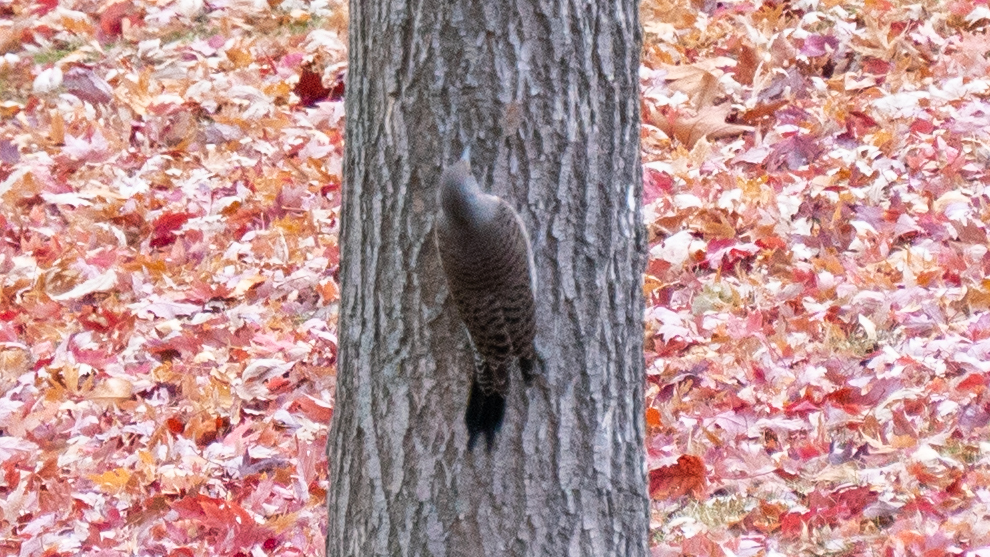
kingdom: Animalia
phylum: Chordata
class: Aves
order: Piciformes
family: Picidae
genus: Colaptes
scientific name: Colaptes auratus
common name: Northern flicker
